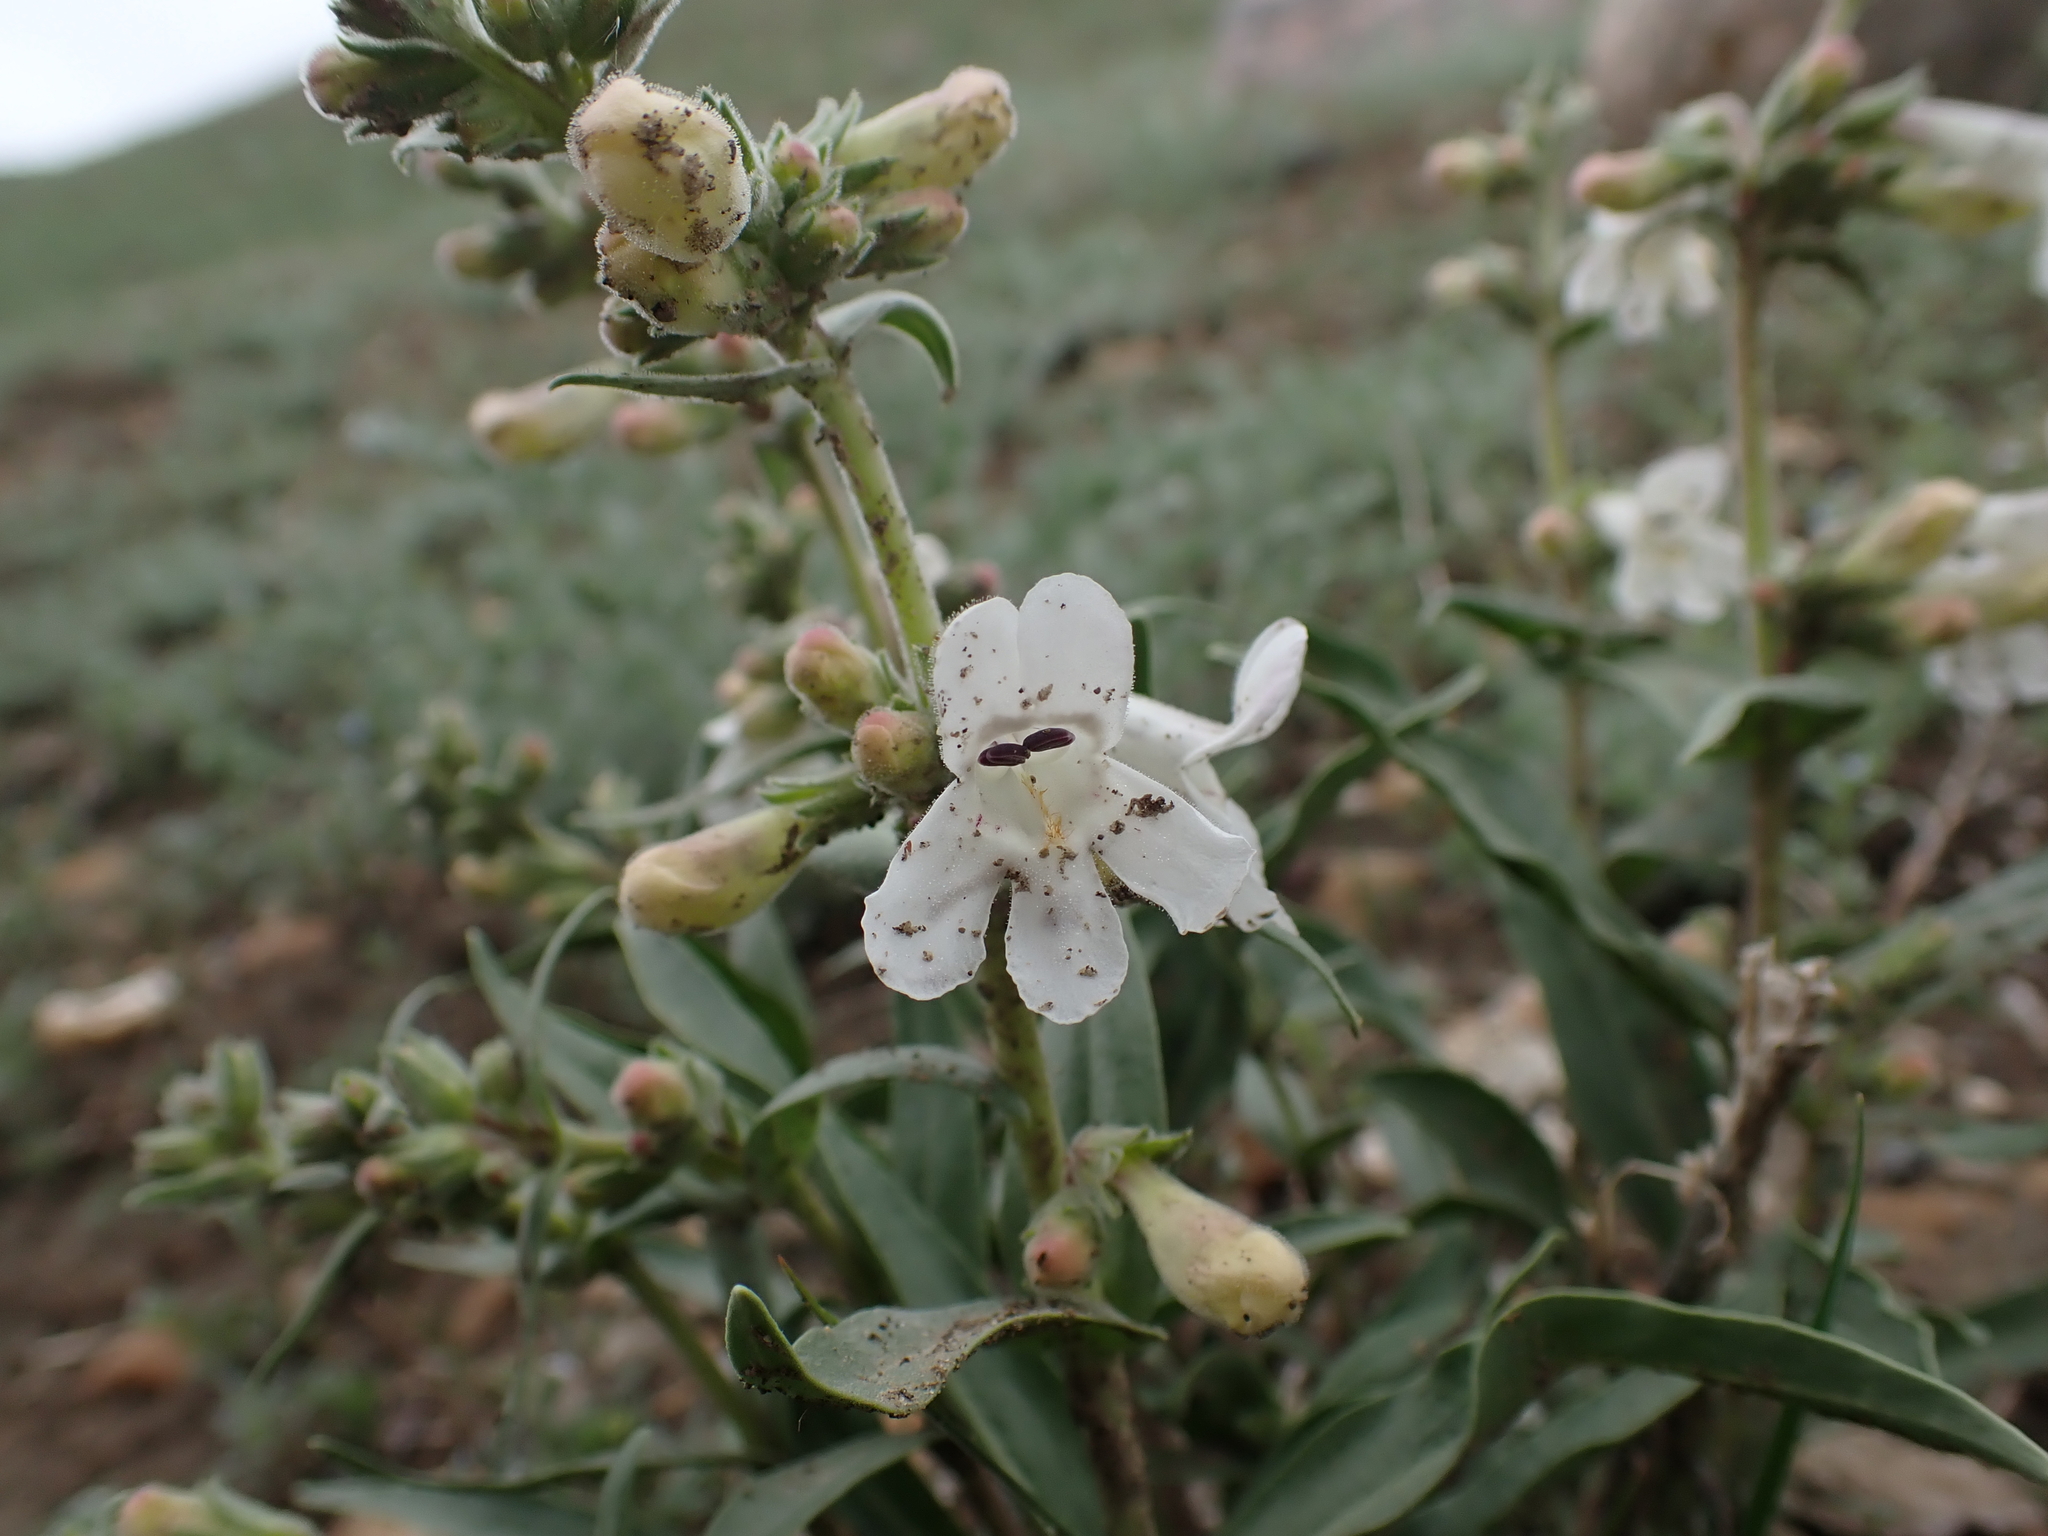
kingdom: Plantae
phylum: Tracheophyta
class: Magnoliopsida
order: Lamiales
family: Plantaginaceae
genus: Penstemon
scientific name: Penstemon albidus
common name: White beardtongue
